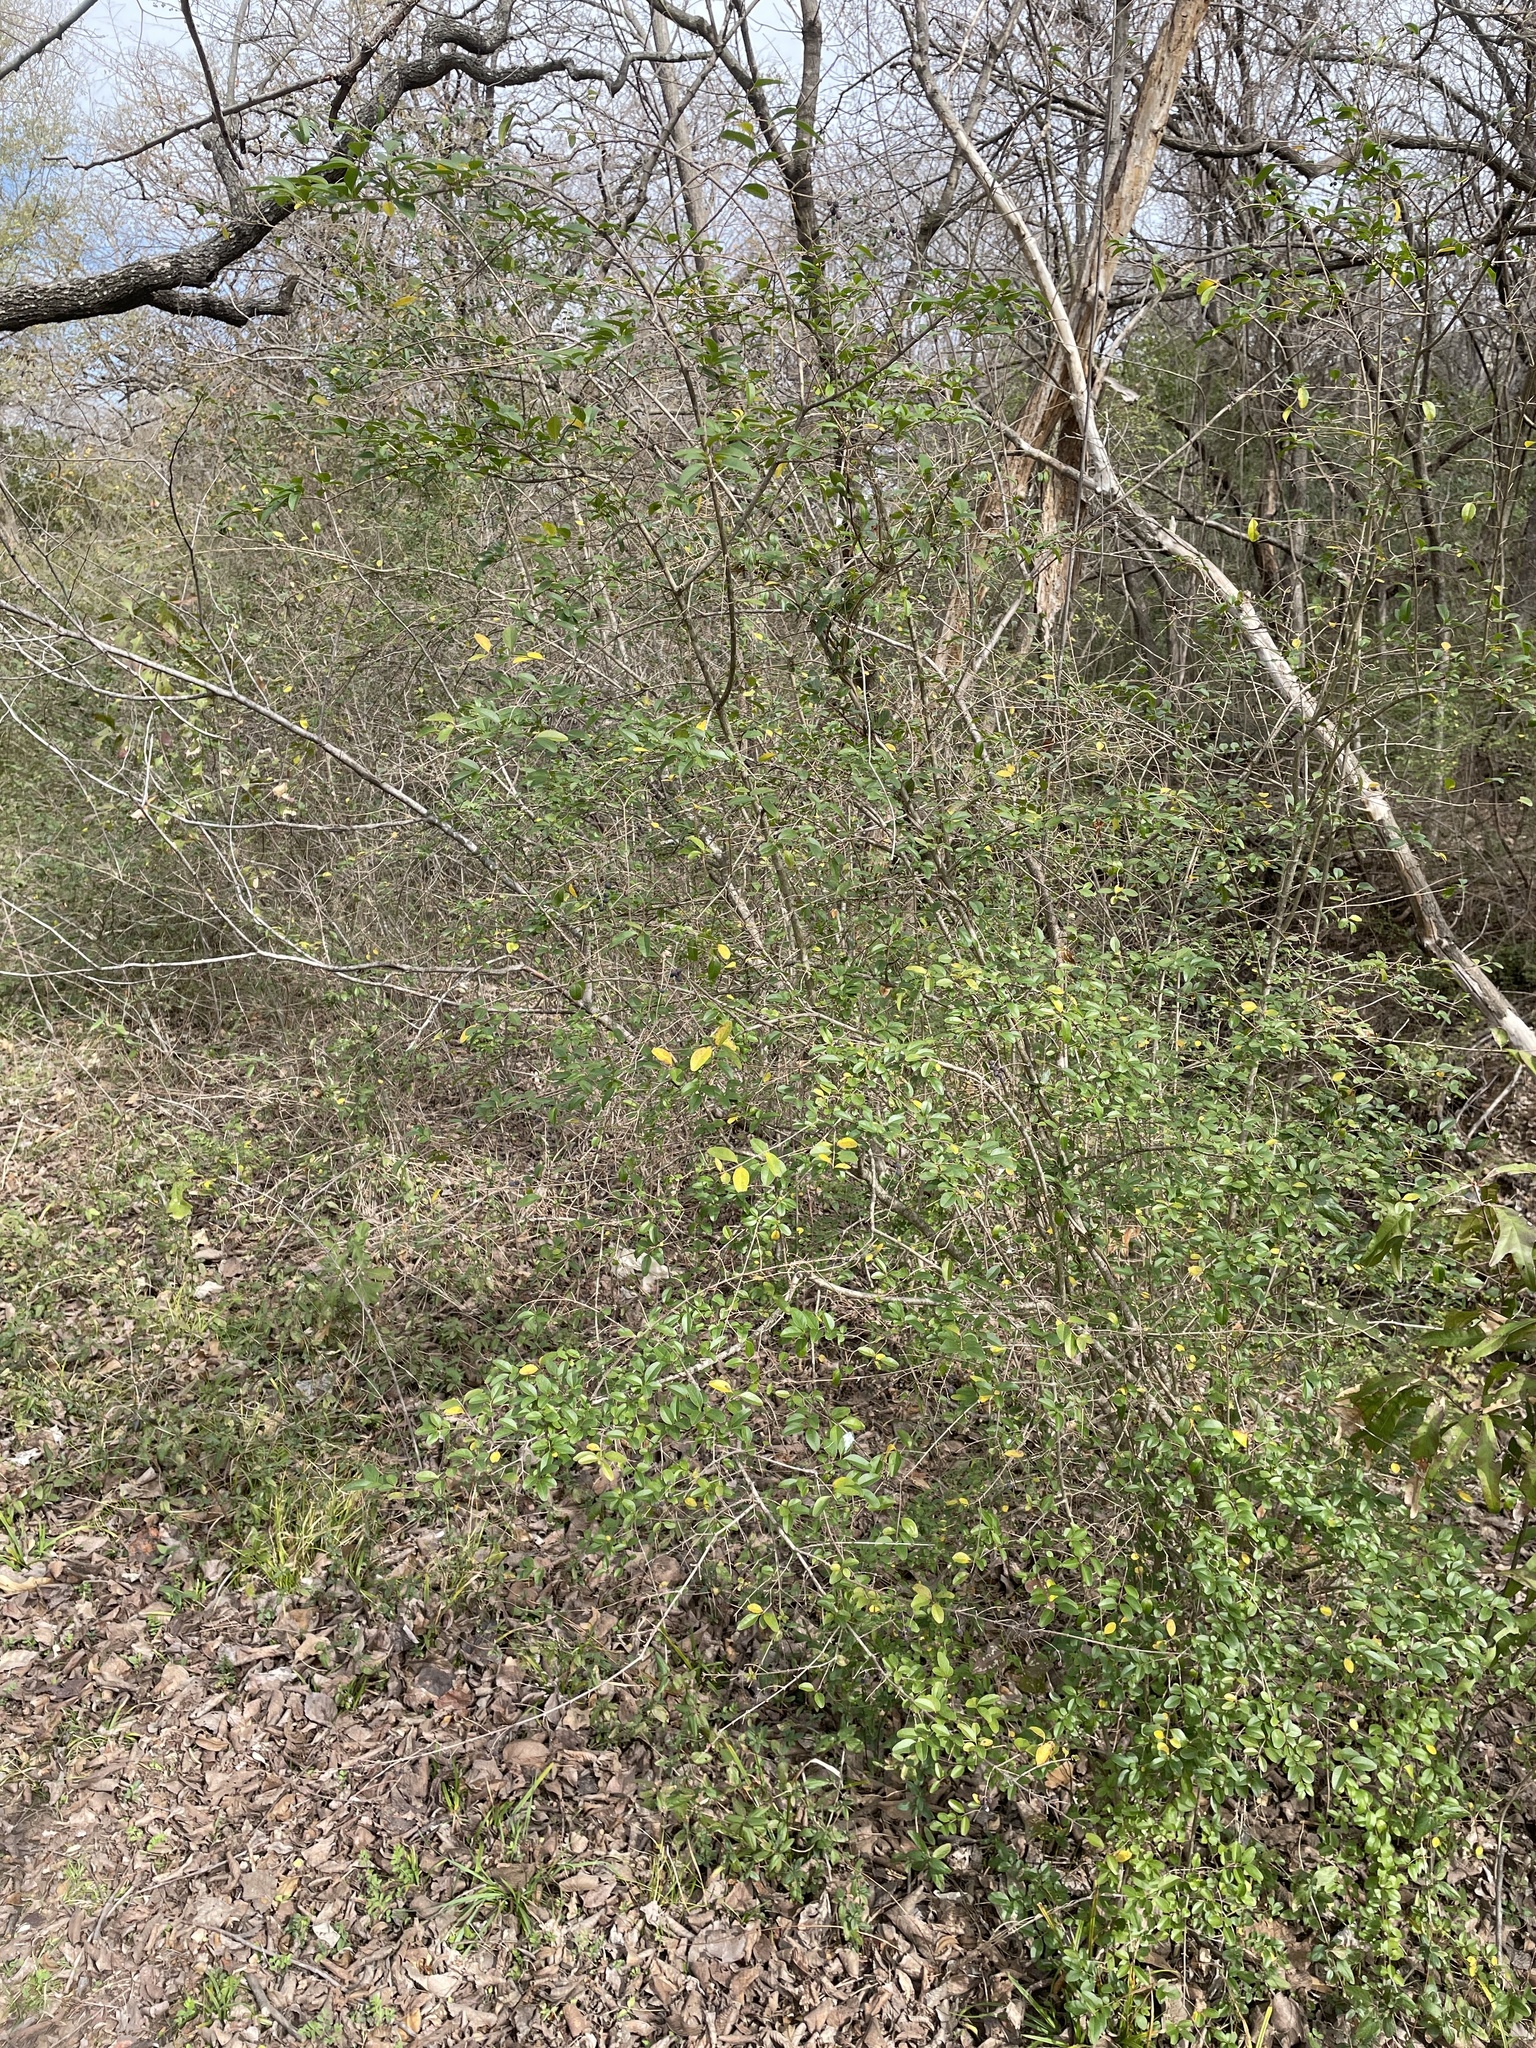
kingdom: Plantae
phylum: Tracheophyta
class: Magnoliopsida
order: Lamiales
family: Oleaceae
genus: Ligustrum
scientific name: Ligustrum sinense
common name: Chinese privet
